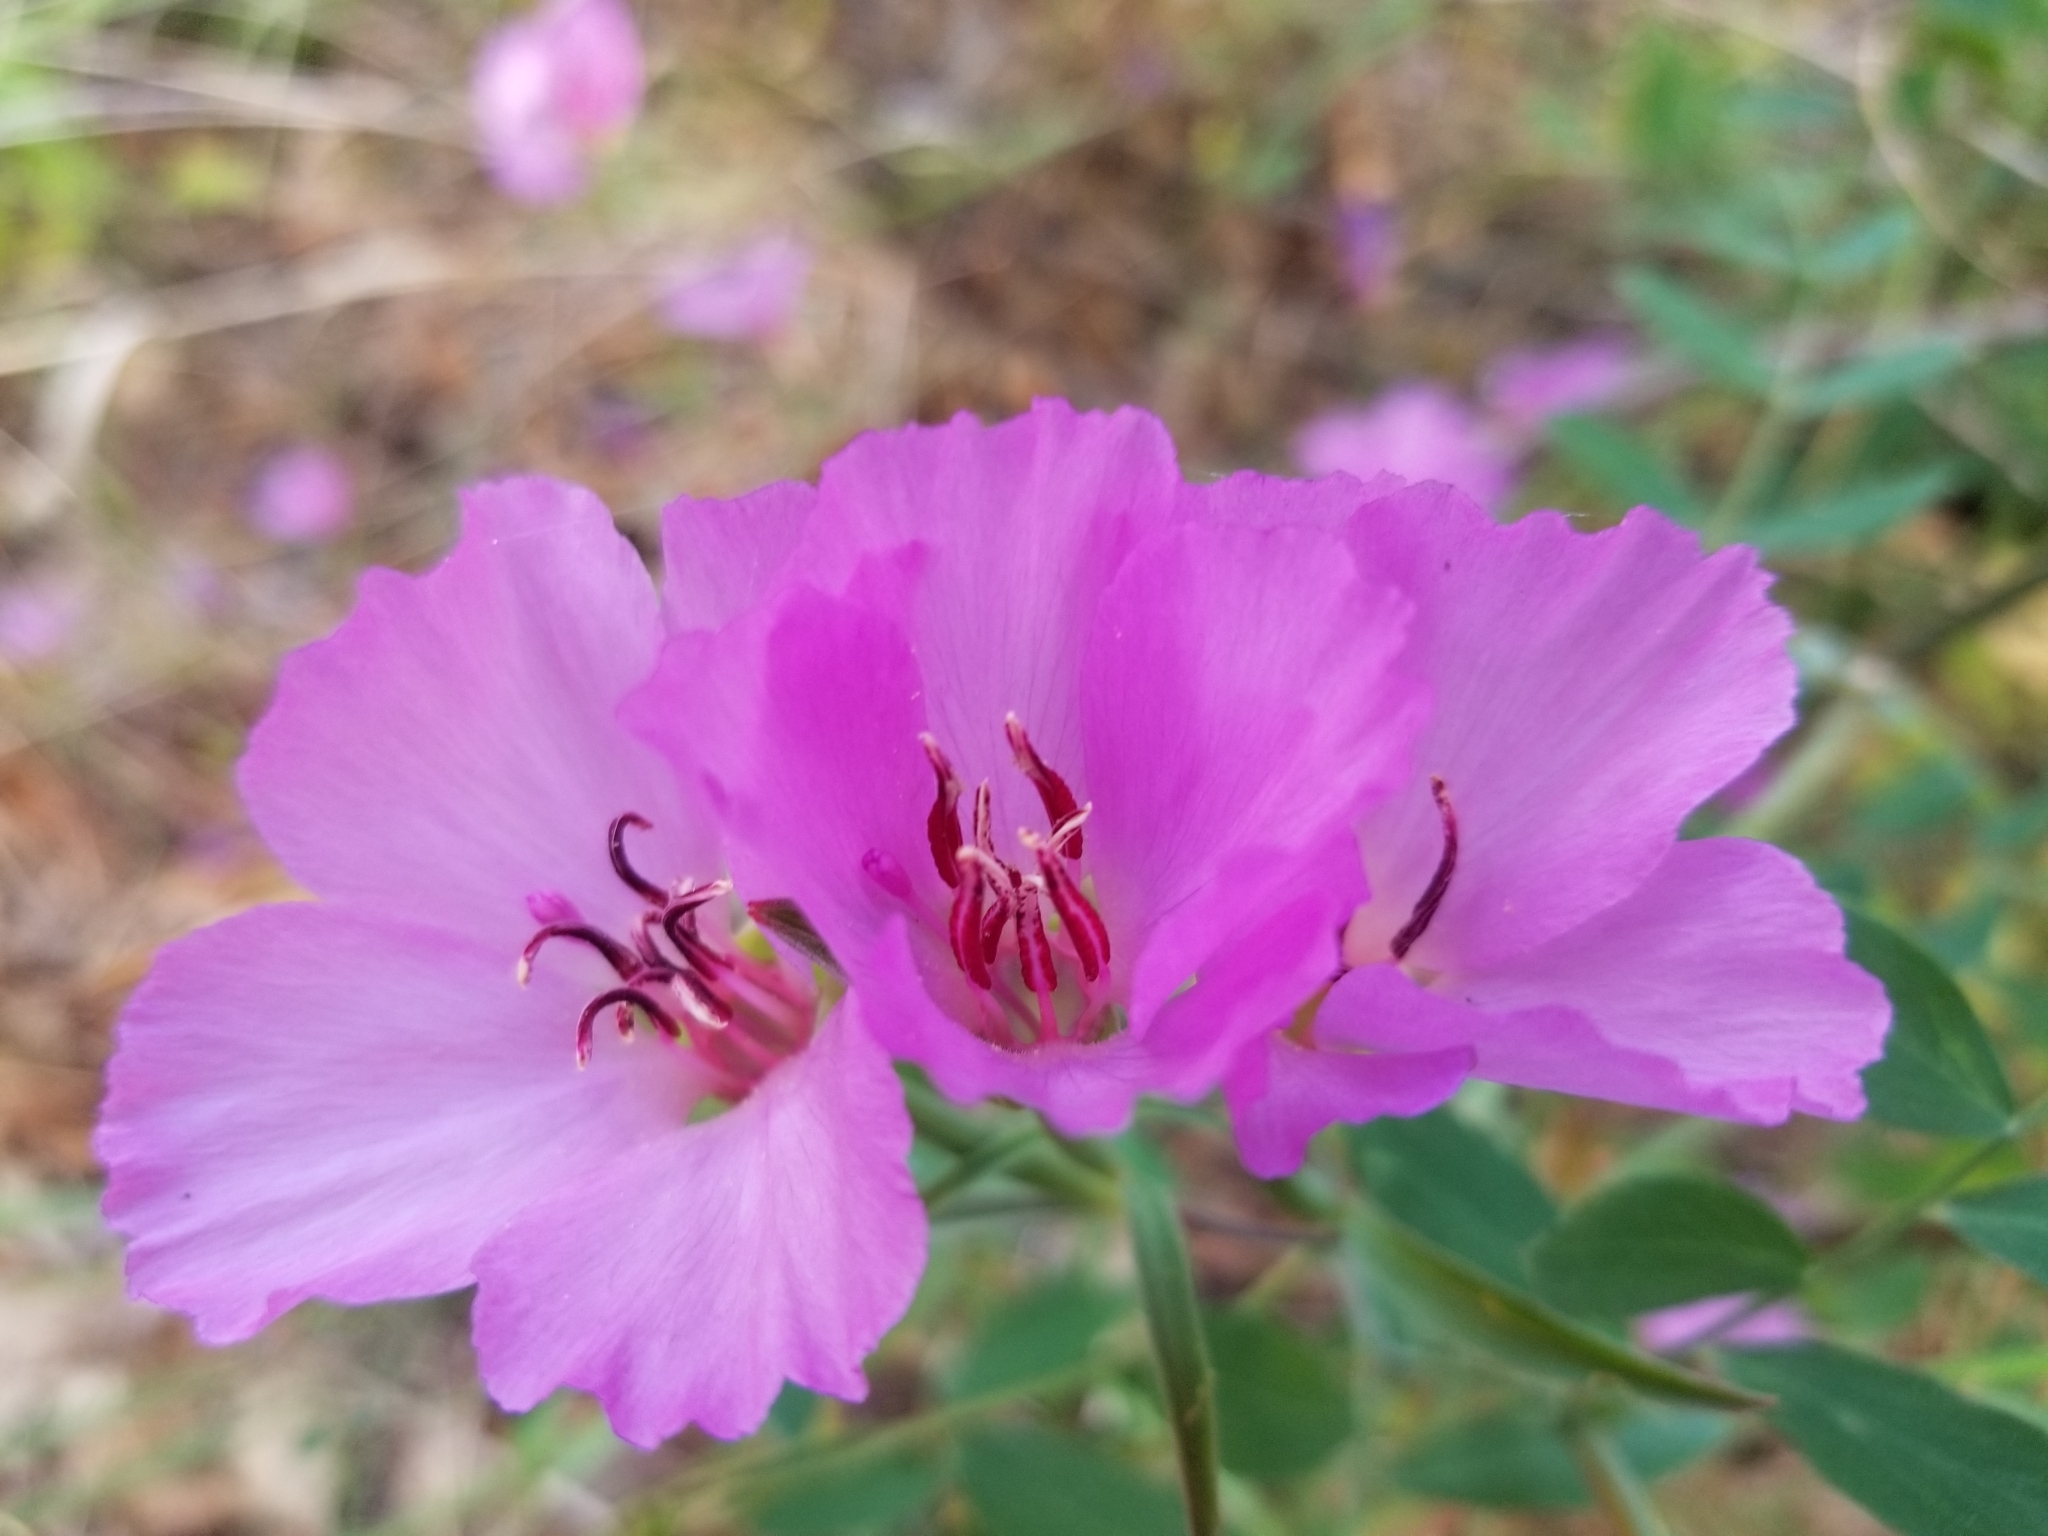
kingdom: Plantae
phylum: Tracheophyta
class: Magnoliopsida
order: Myrtales
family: Onagraceae
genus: Clarkia
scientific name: Clarkia gracilis
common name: Graceful clarkia
